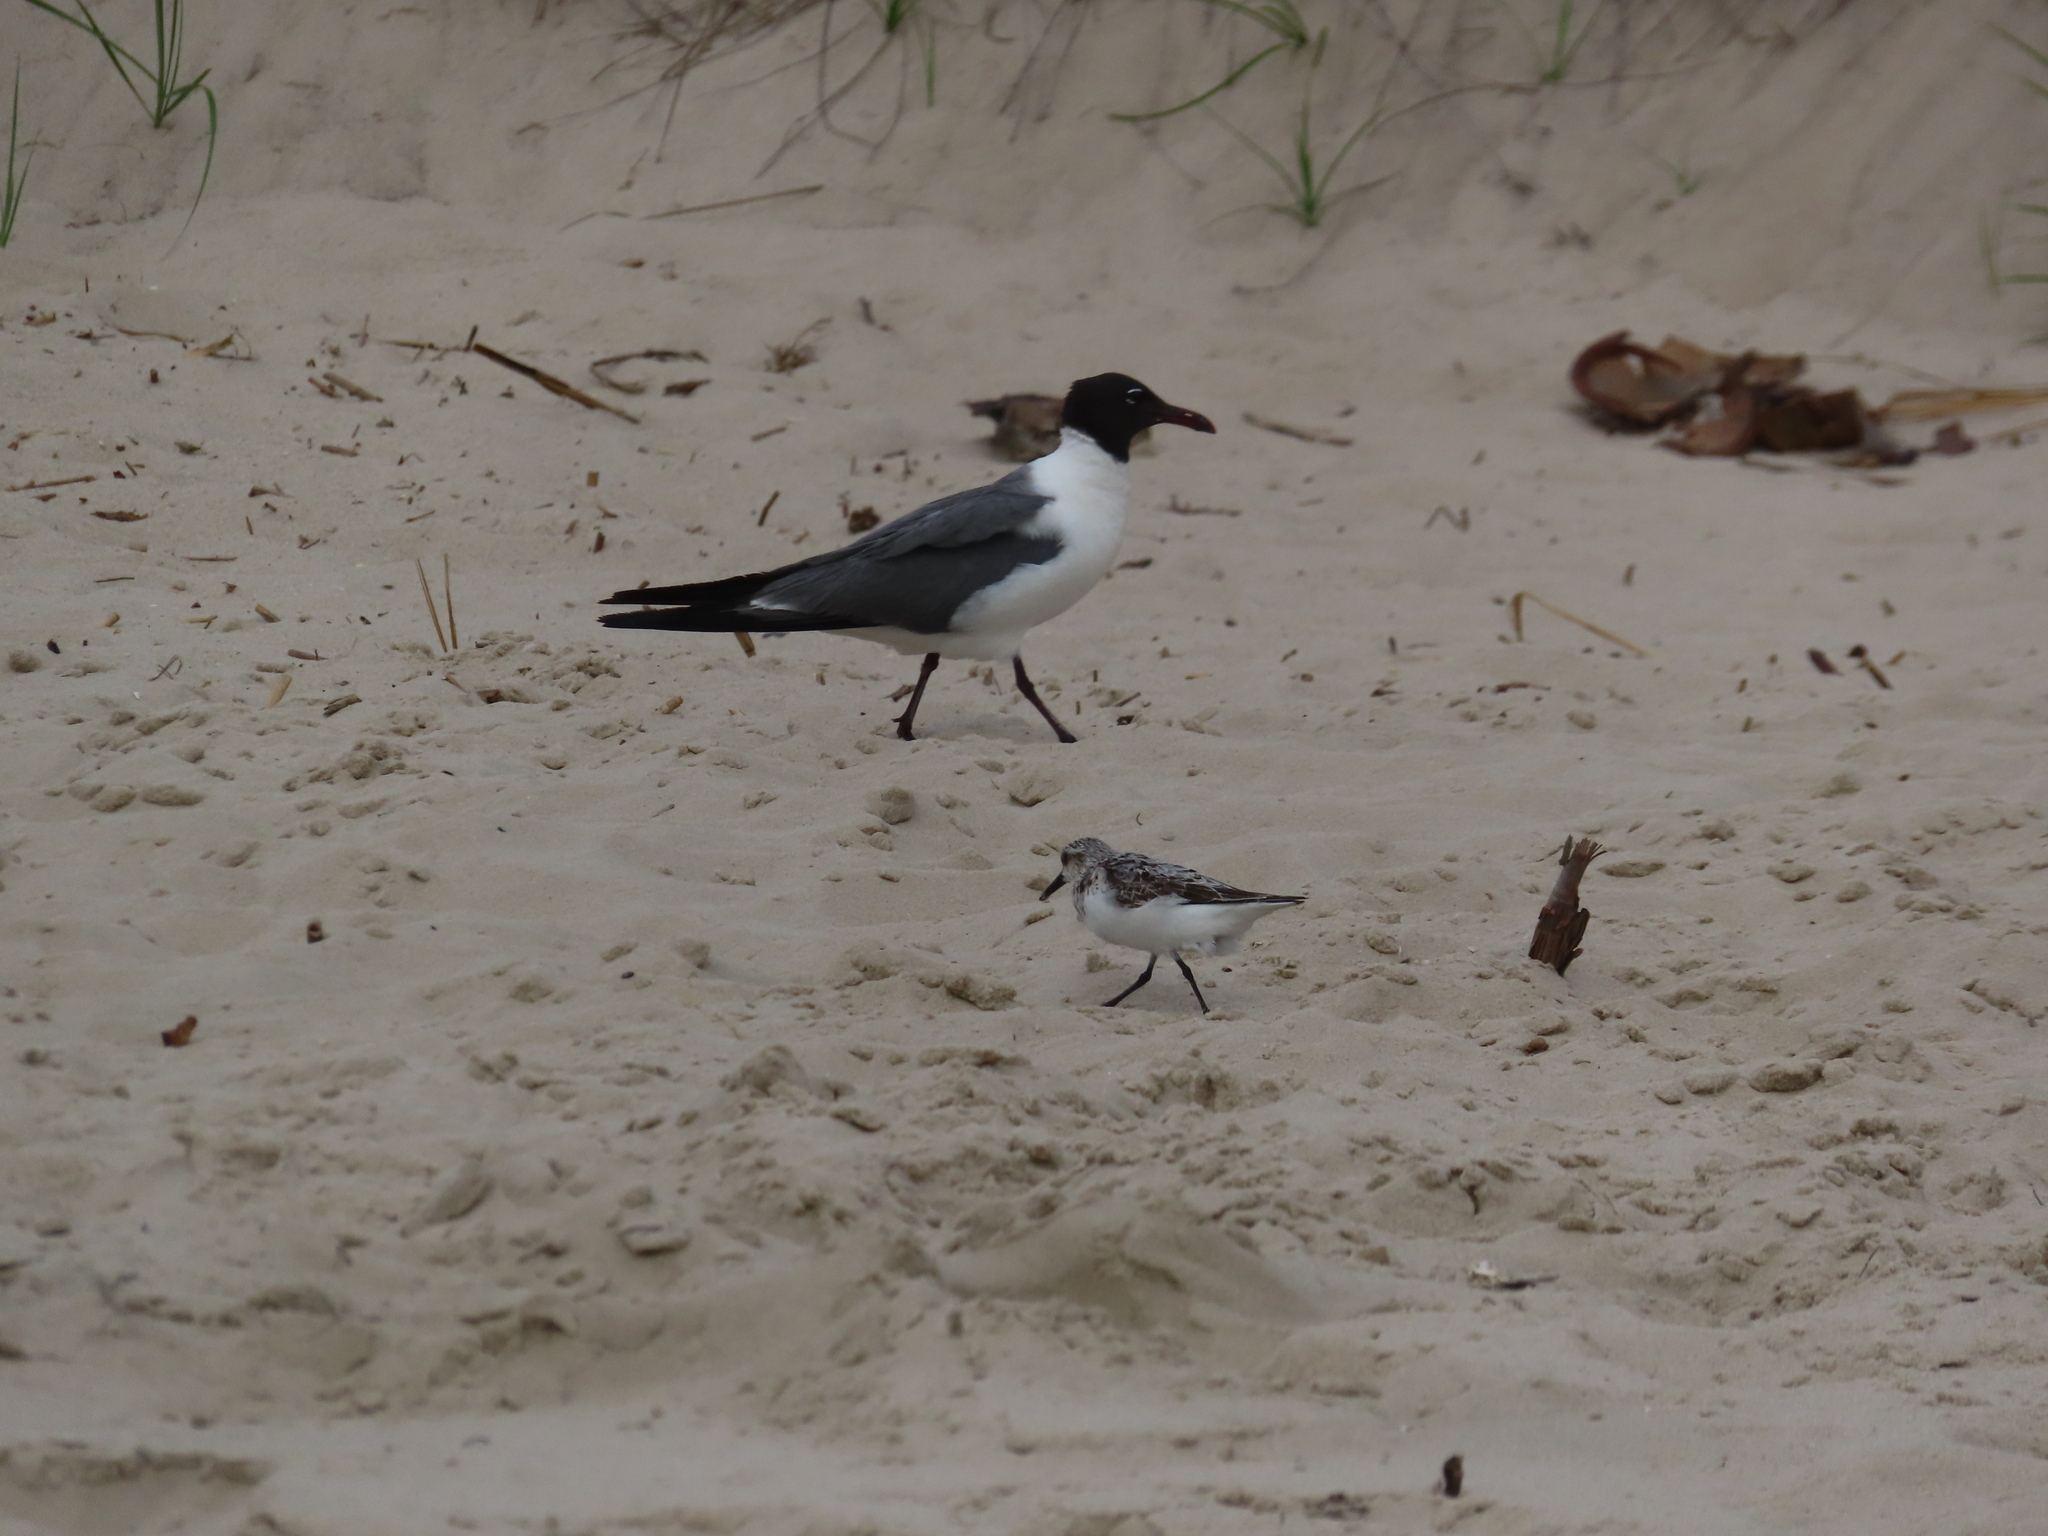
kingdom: Animalia
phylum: Chordata
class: Aves
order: Charadriiformes
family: Laridae
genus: Leucophaeus
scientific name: Leucophaeus atricilla
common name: Laughing gull
